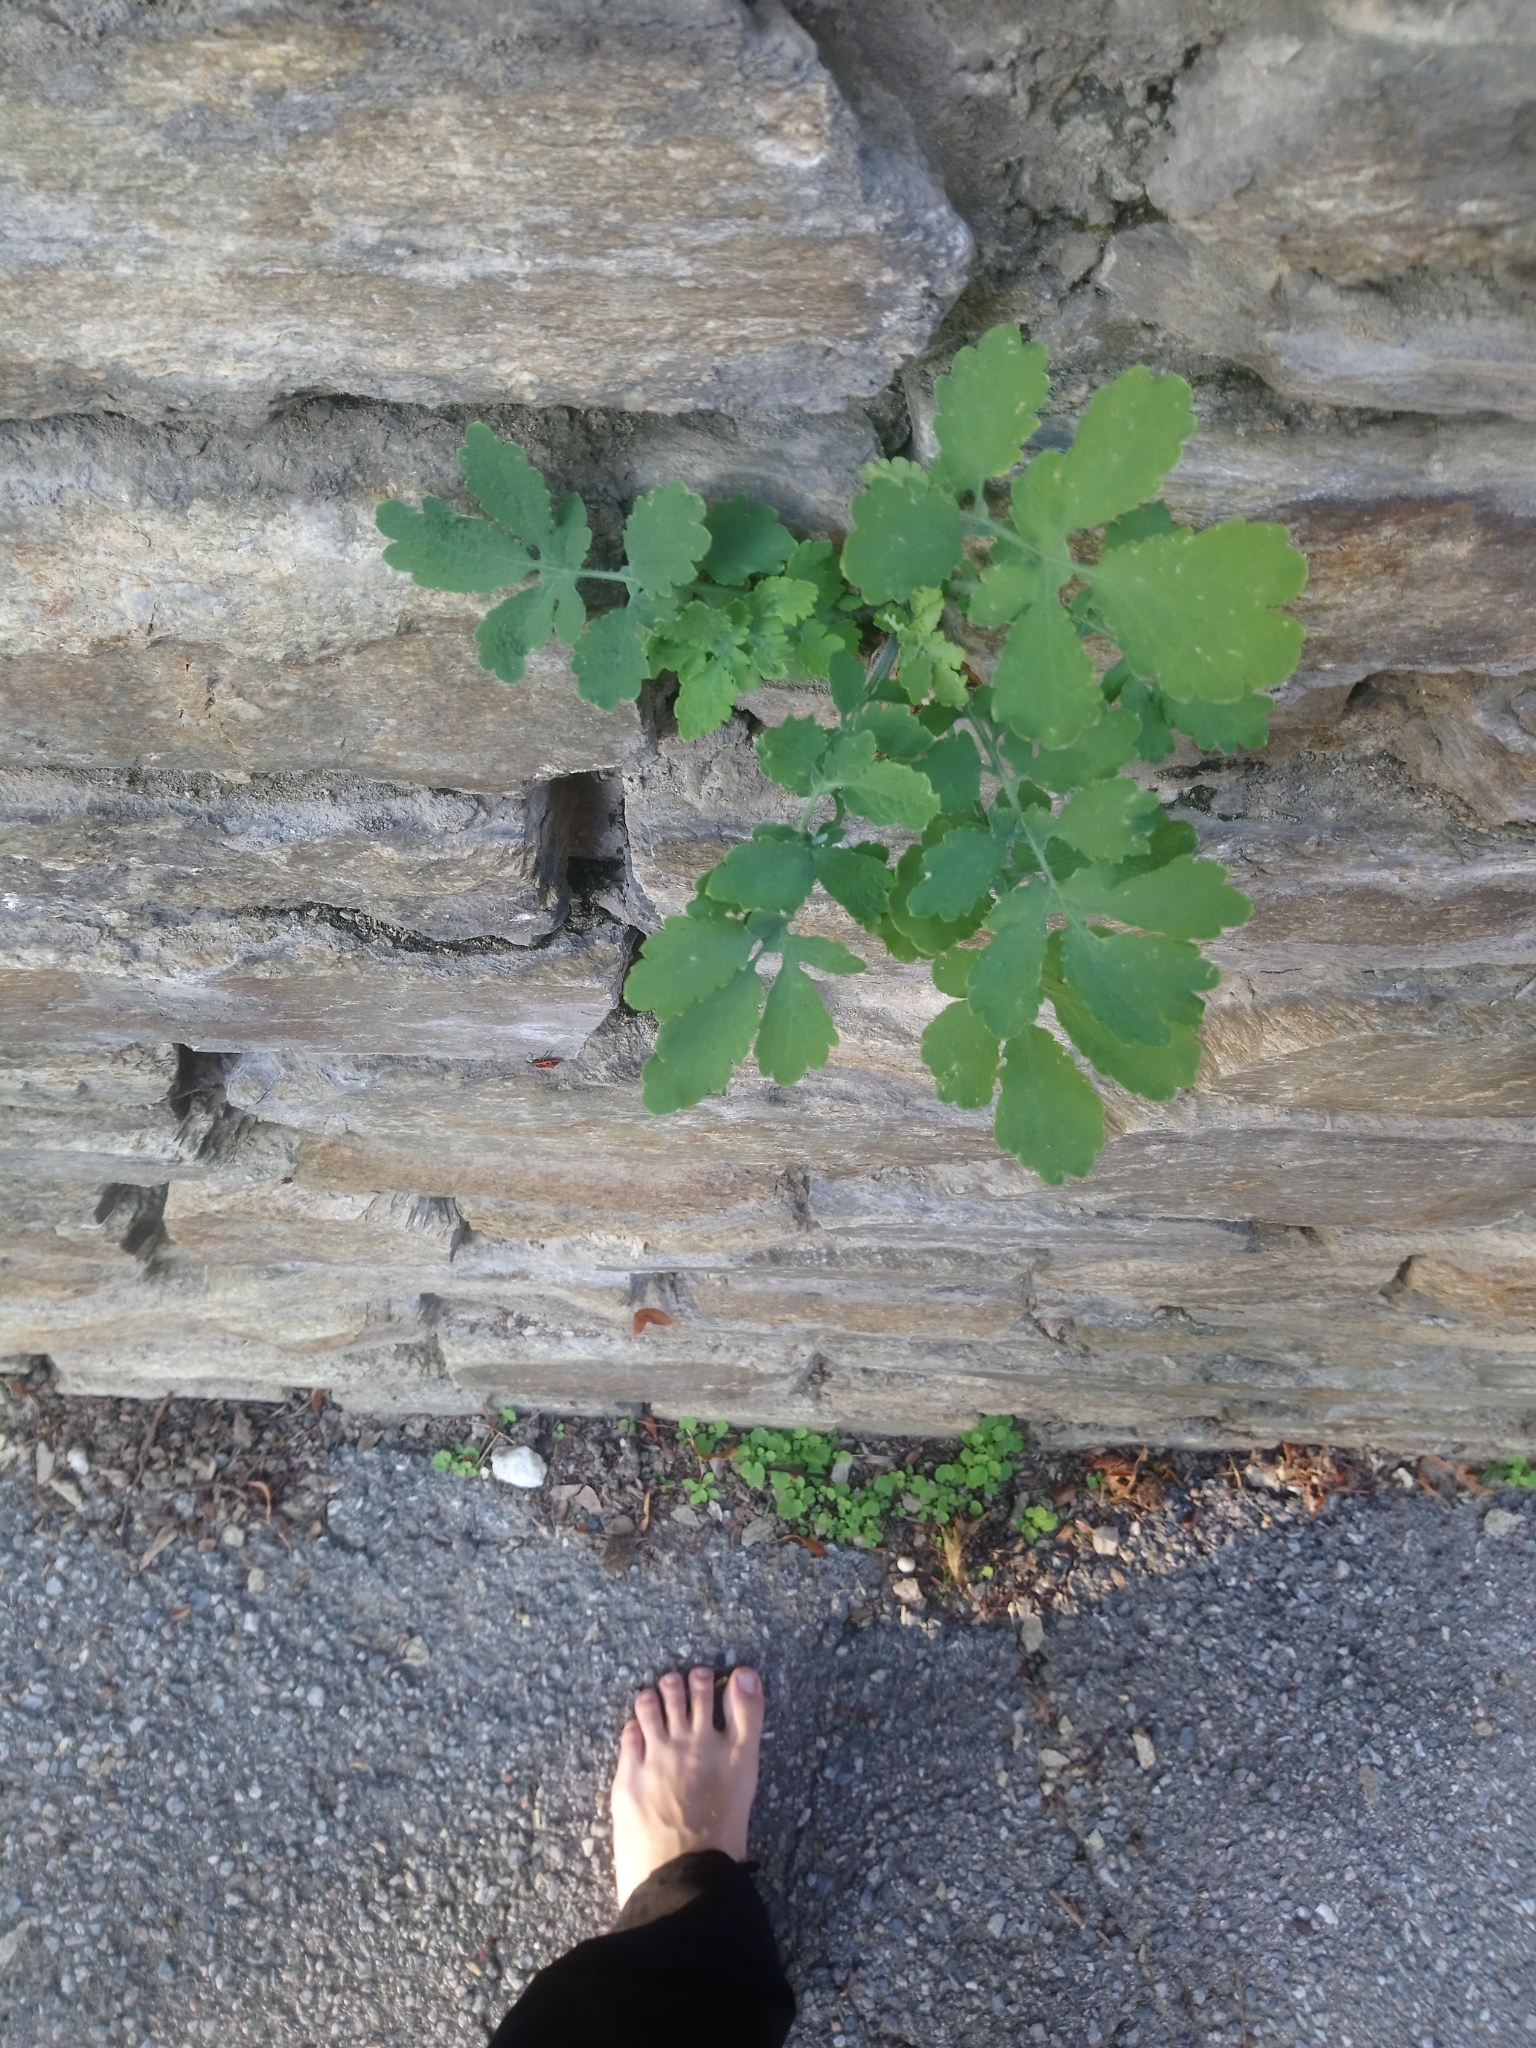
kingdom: Plantae
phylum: Tracheophyta
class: Magnoliopsida
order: Ranunculales
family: Papaveraceae
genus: Chelidonium
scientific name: Chelidonium majus
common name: Greater celandine
